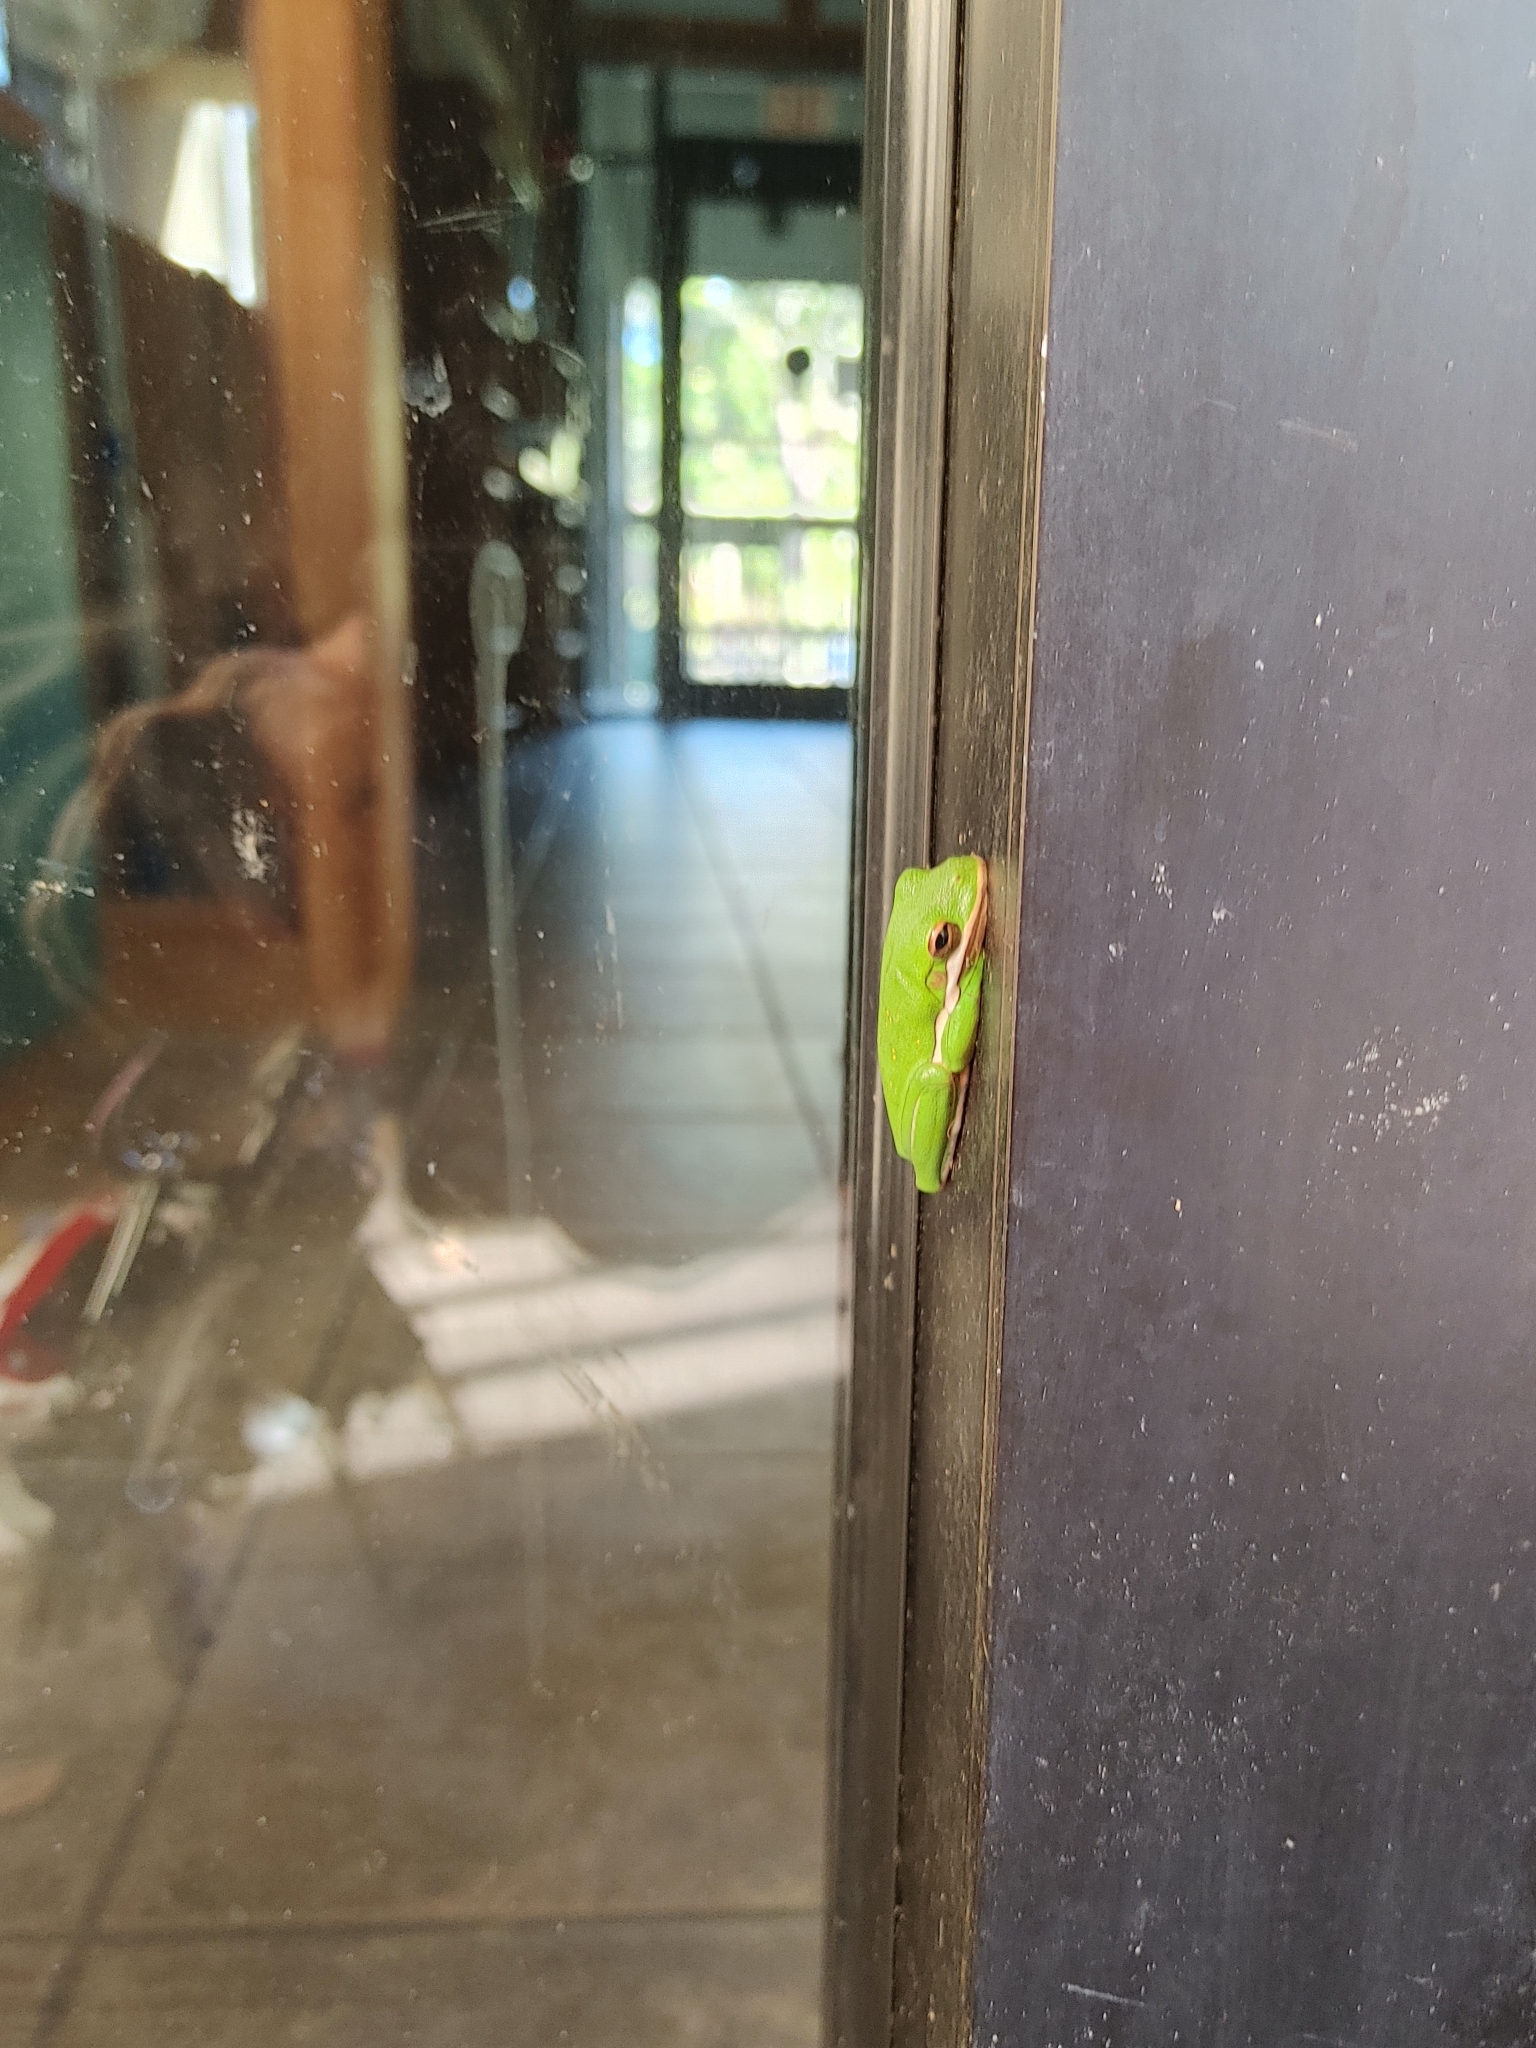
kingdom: Animalia
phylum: Chordata
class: Amphibia
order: Anura
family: Hylidae
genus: Dryophytes
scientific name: Dryophytes cinereus
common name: Green treefrog
